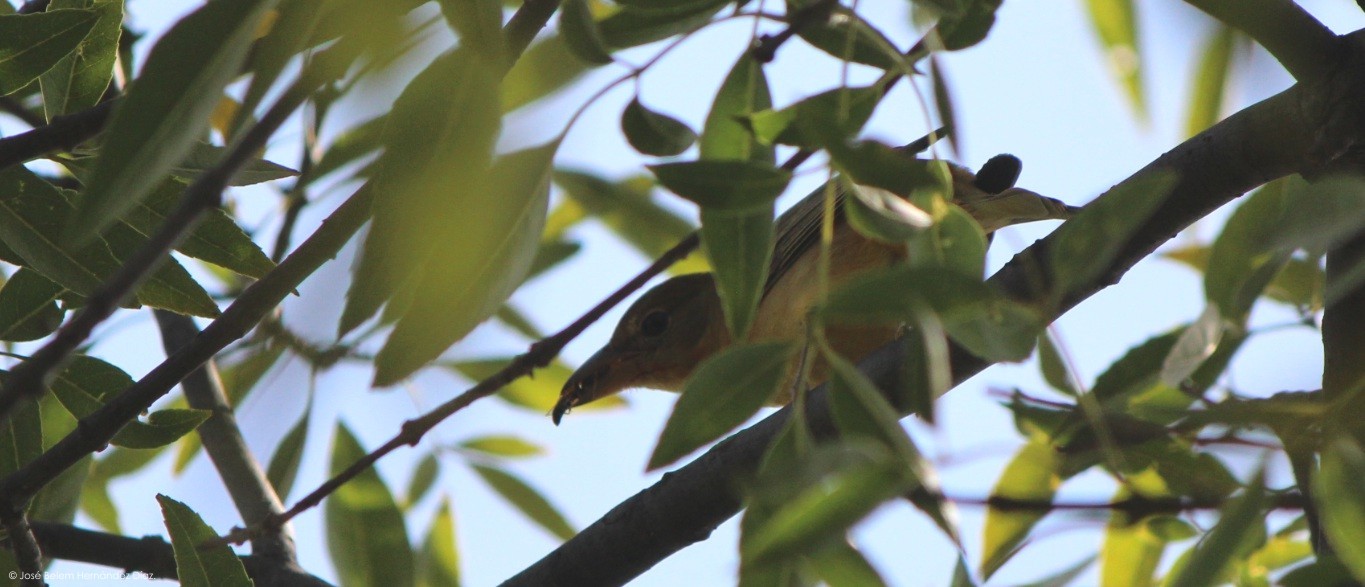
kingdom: Animalia
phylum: Chordata
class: Aves
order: Passeriformes
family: Cardinalidae
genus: Piranga
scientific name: Piranga rubra
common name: Summer tanager
